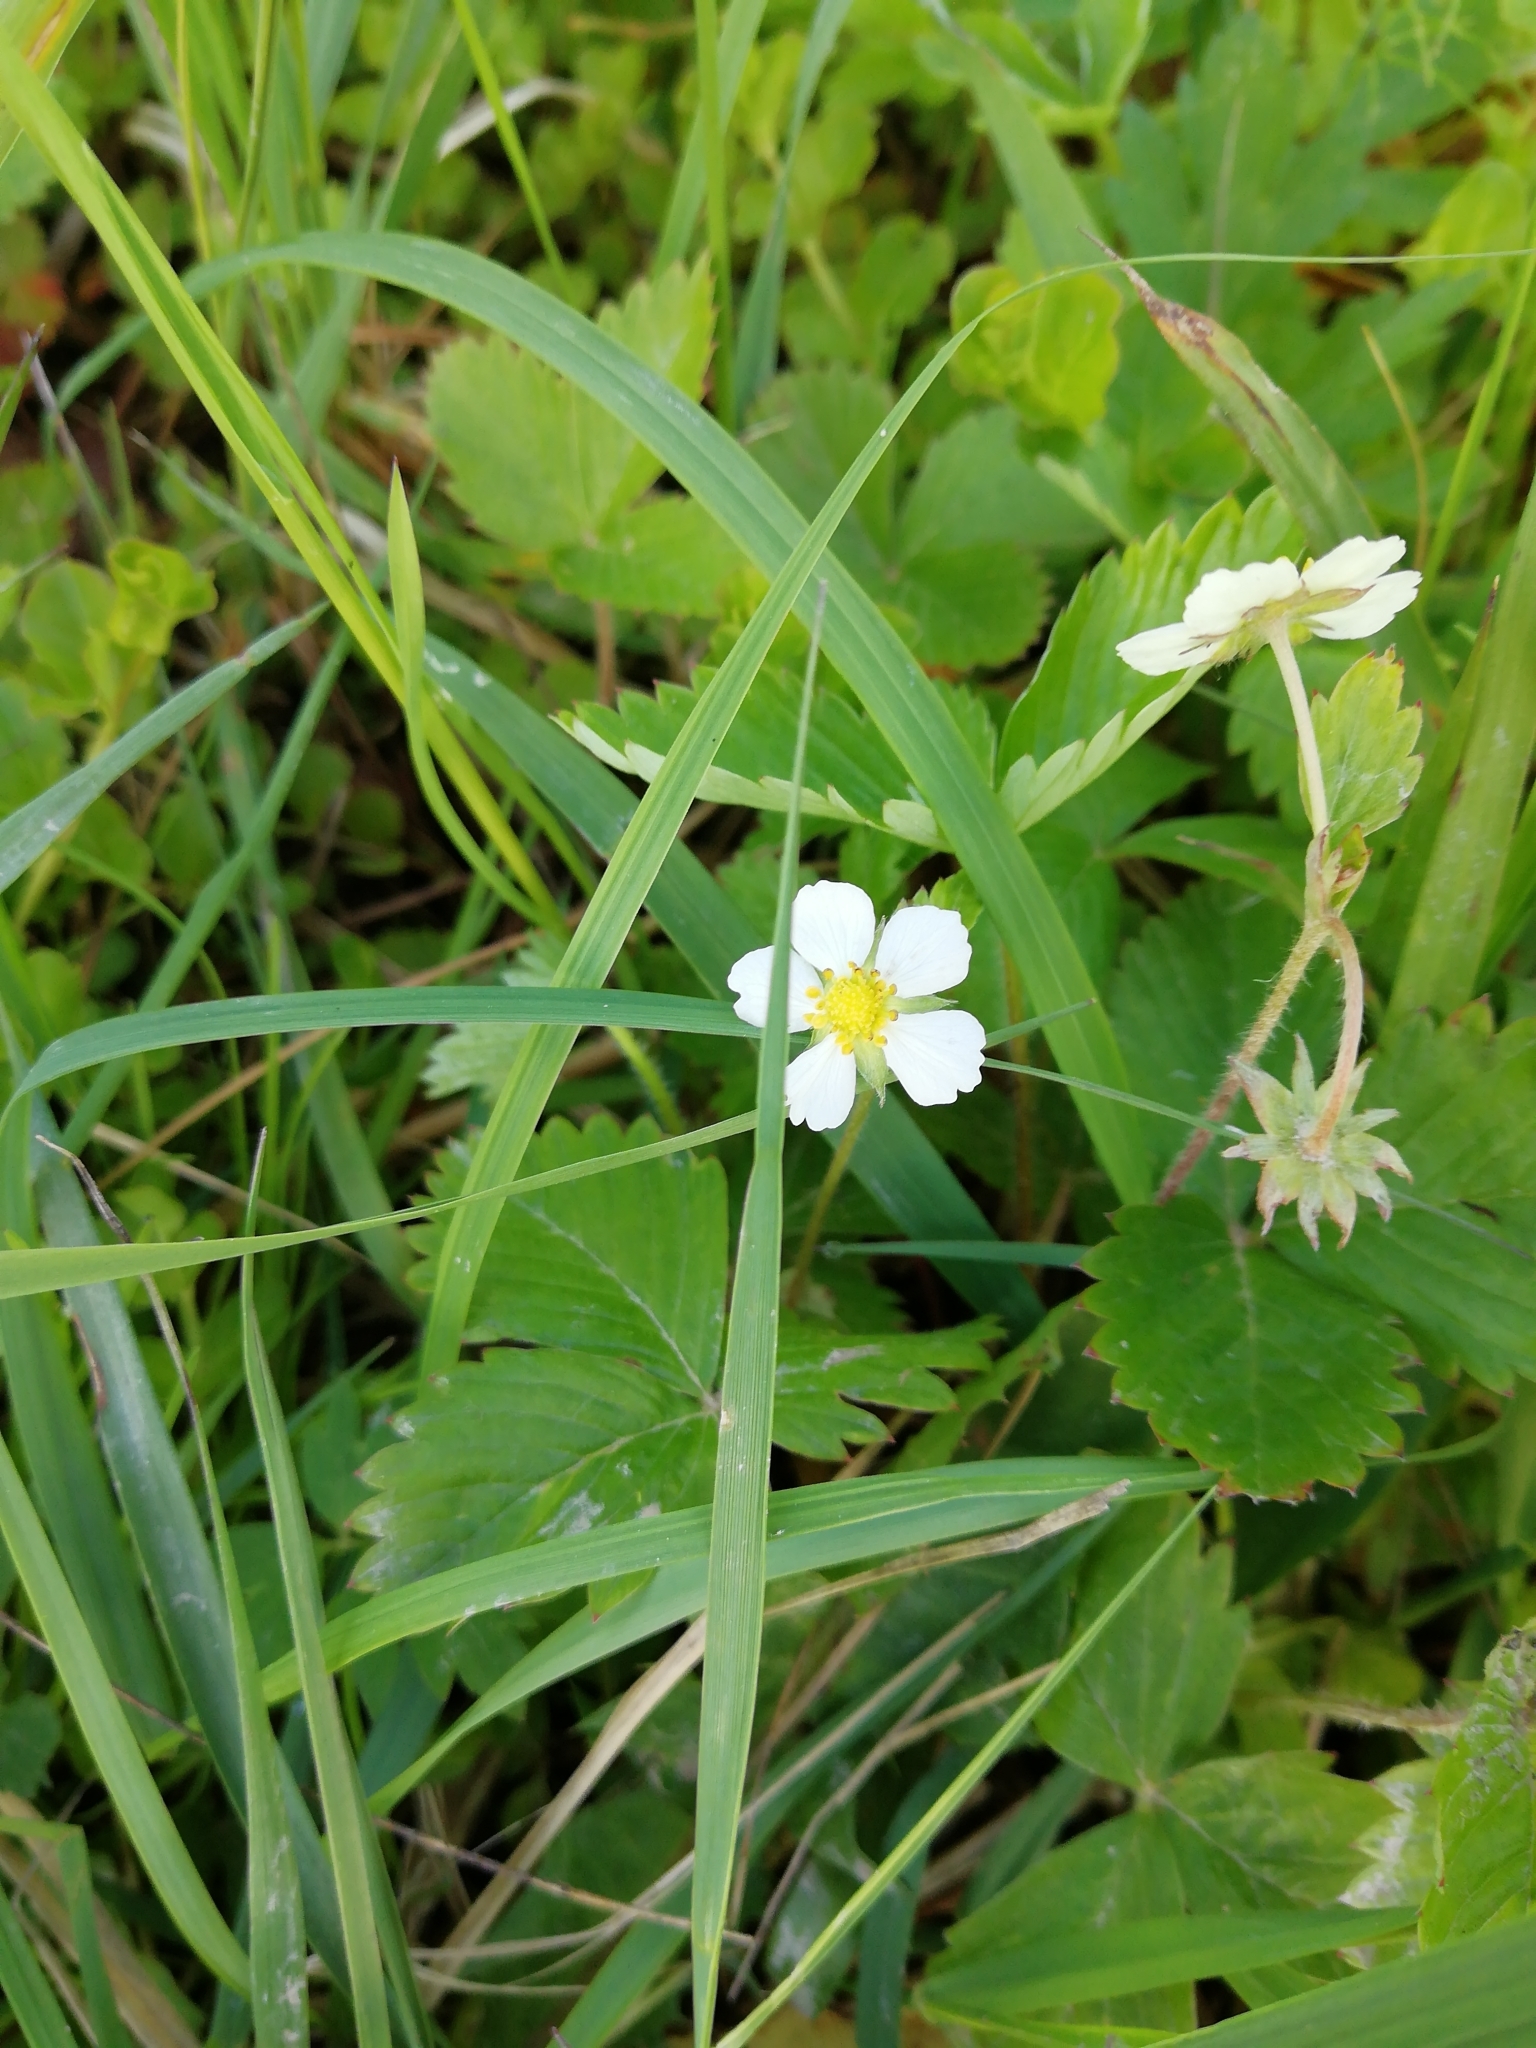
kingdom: Plantae
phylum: Tracheophyta
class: Magnoliopsida
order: Rosales
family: Rosaceae
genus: Fragaria
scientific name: Fragaria vesca
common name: Wild strawberry
